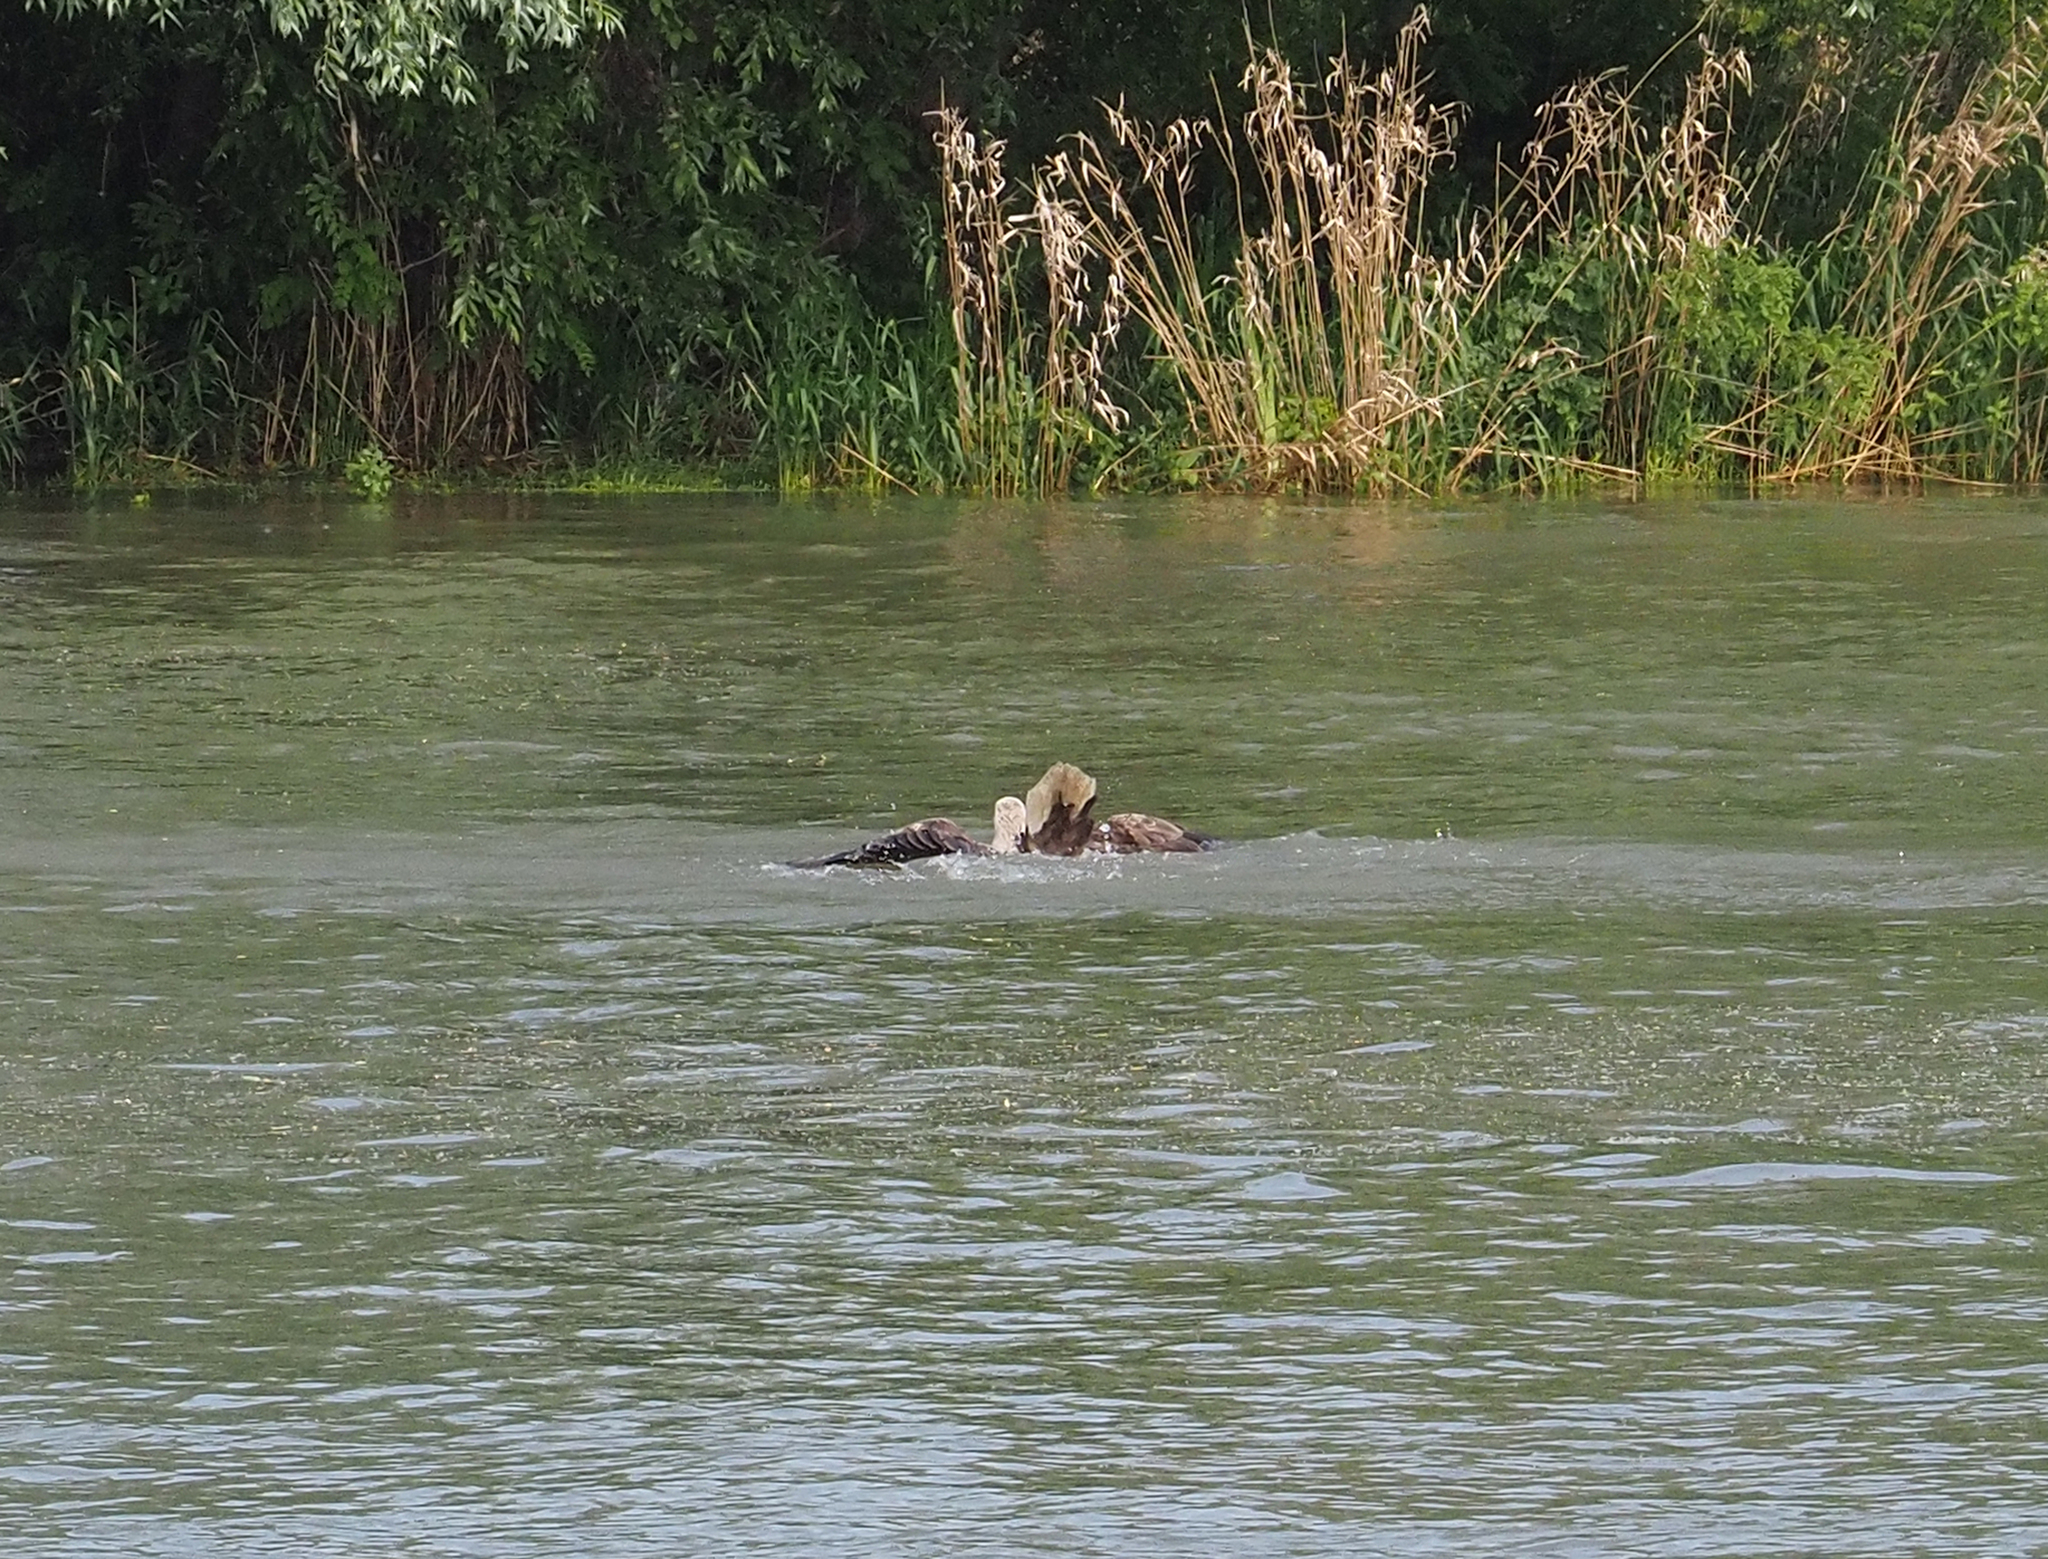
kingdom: Animalia
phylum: Chordata
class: Aves
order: Accipitriformes
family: Accipitridae
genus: Haliaeetus
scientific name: Haliaeetus albicilla
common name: White-tailed eagle
